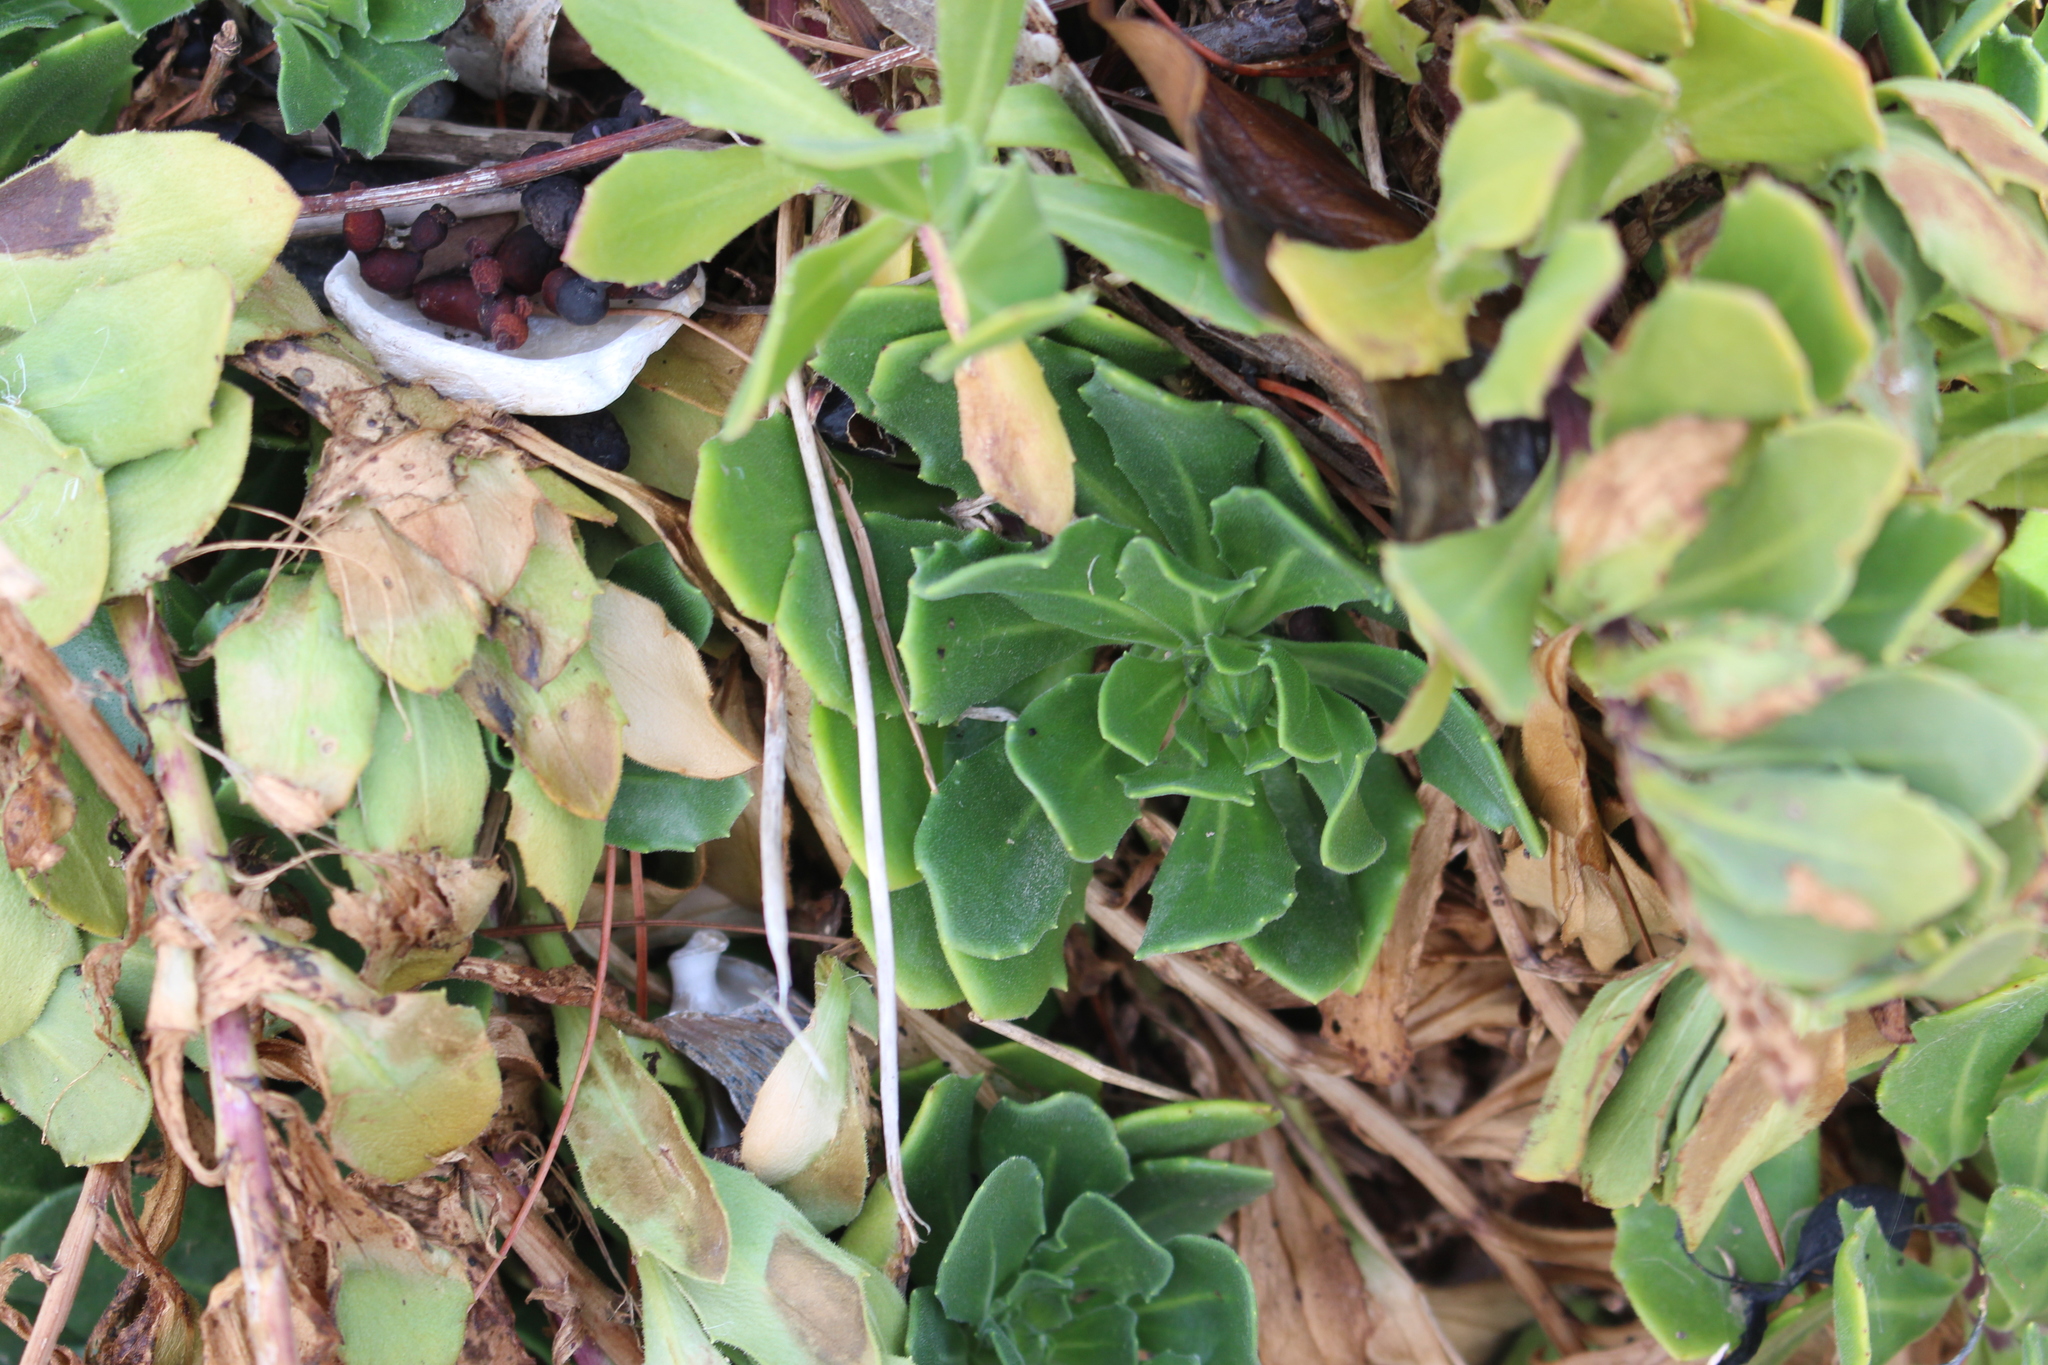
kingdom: Plantae
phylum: Tracheophyta
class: Magnoliopsida
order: Asterales
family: Asteraceae
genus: Dimorphotheca
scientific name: Dimorphotheca fruticosa
